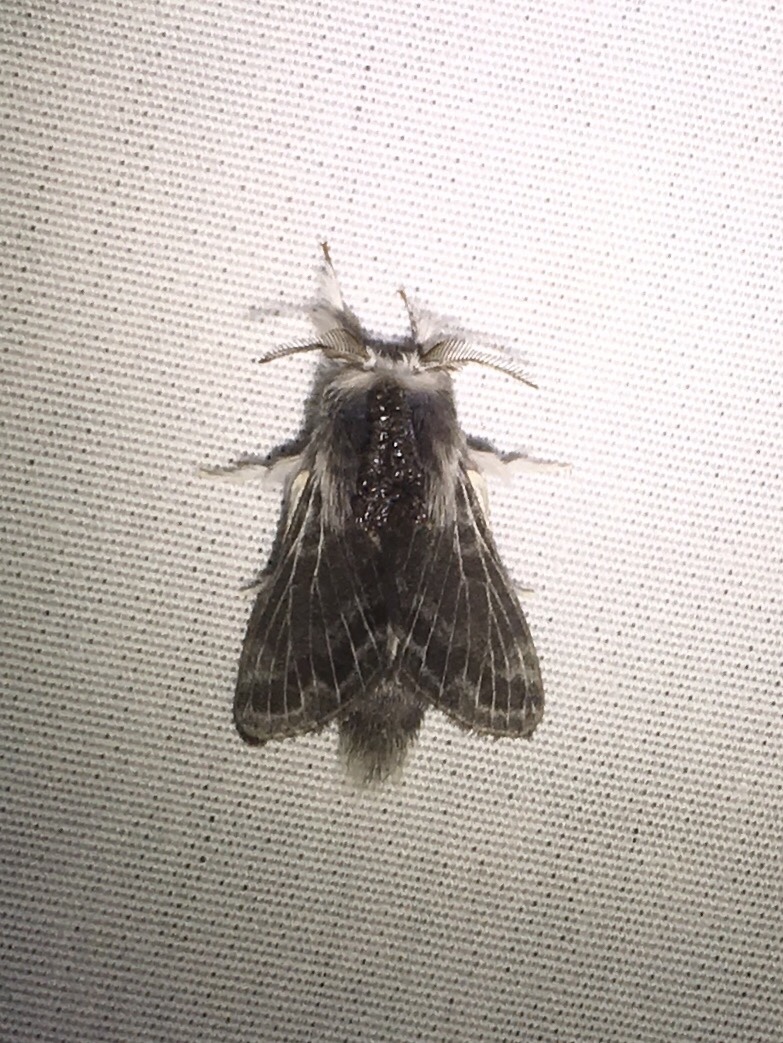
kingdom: Animalia
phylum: Arthropoda
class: Insecta
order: Lepidoptera
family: Lasiocampidae
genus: Tolype
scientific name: Tolype laricis
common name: Larch tolype moth
